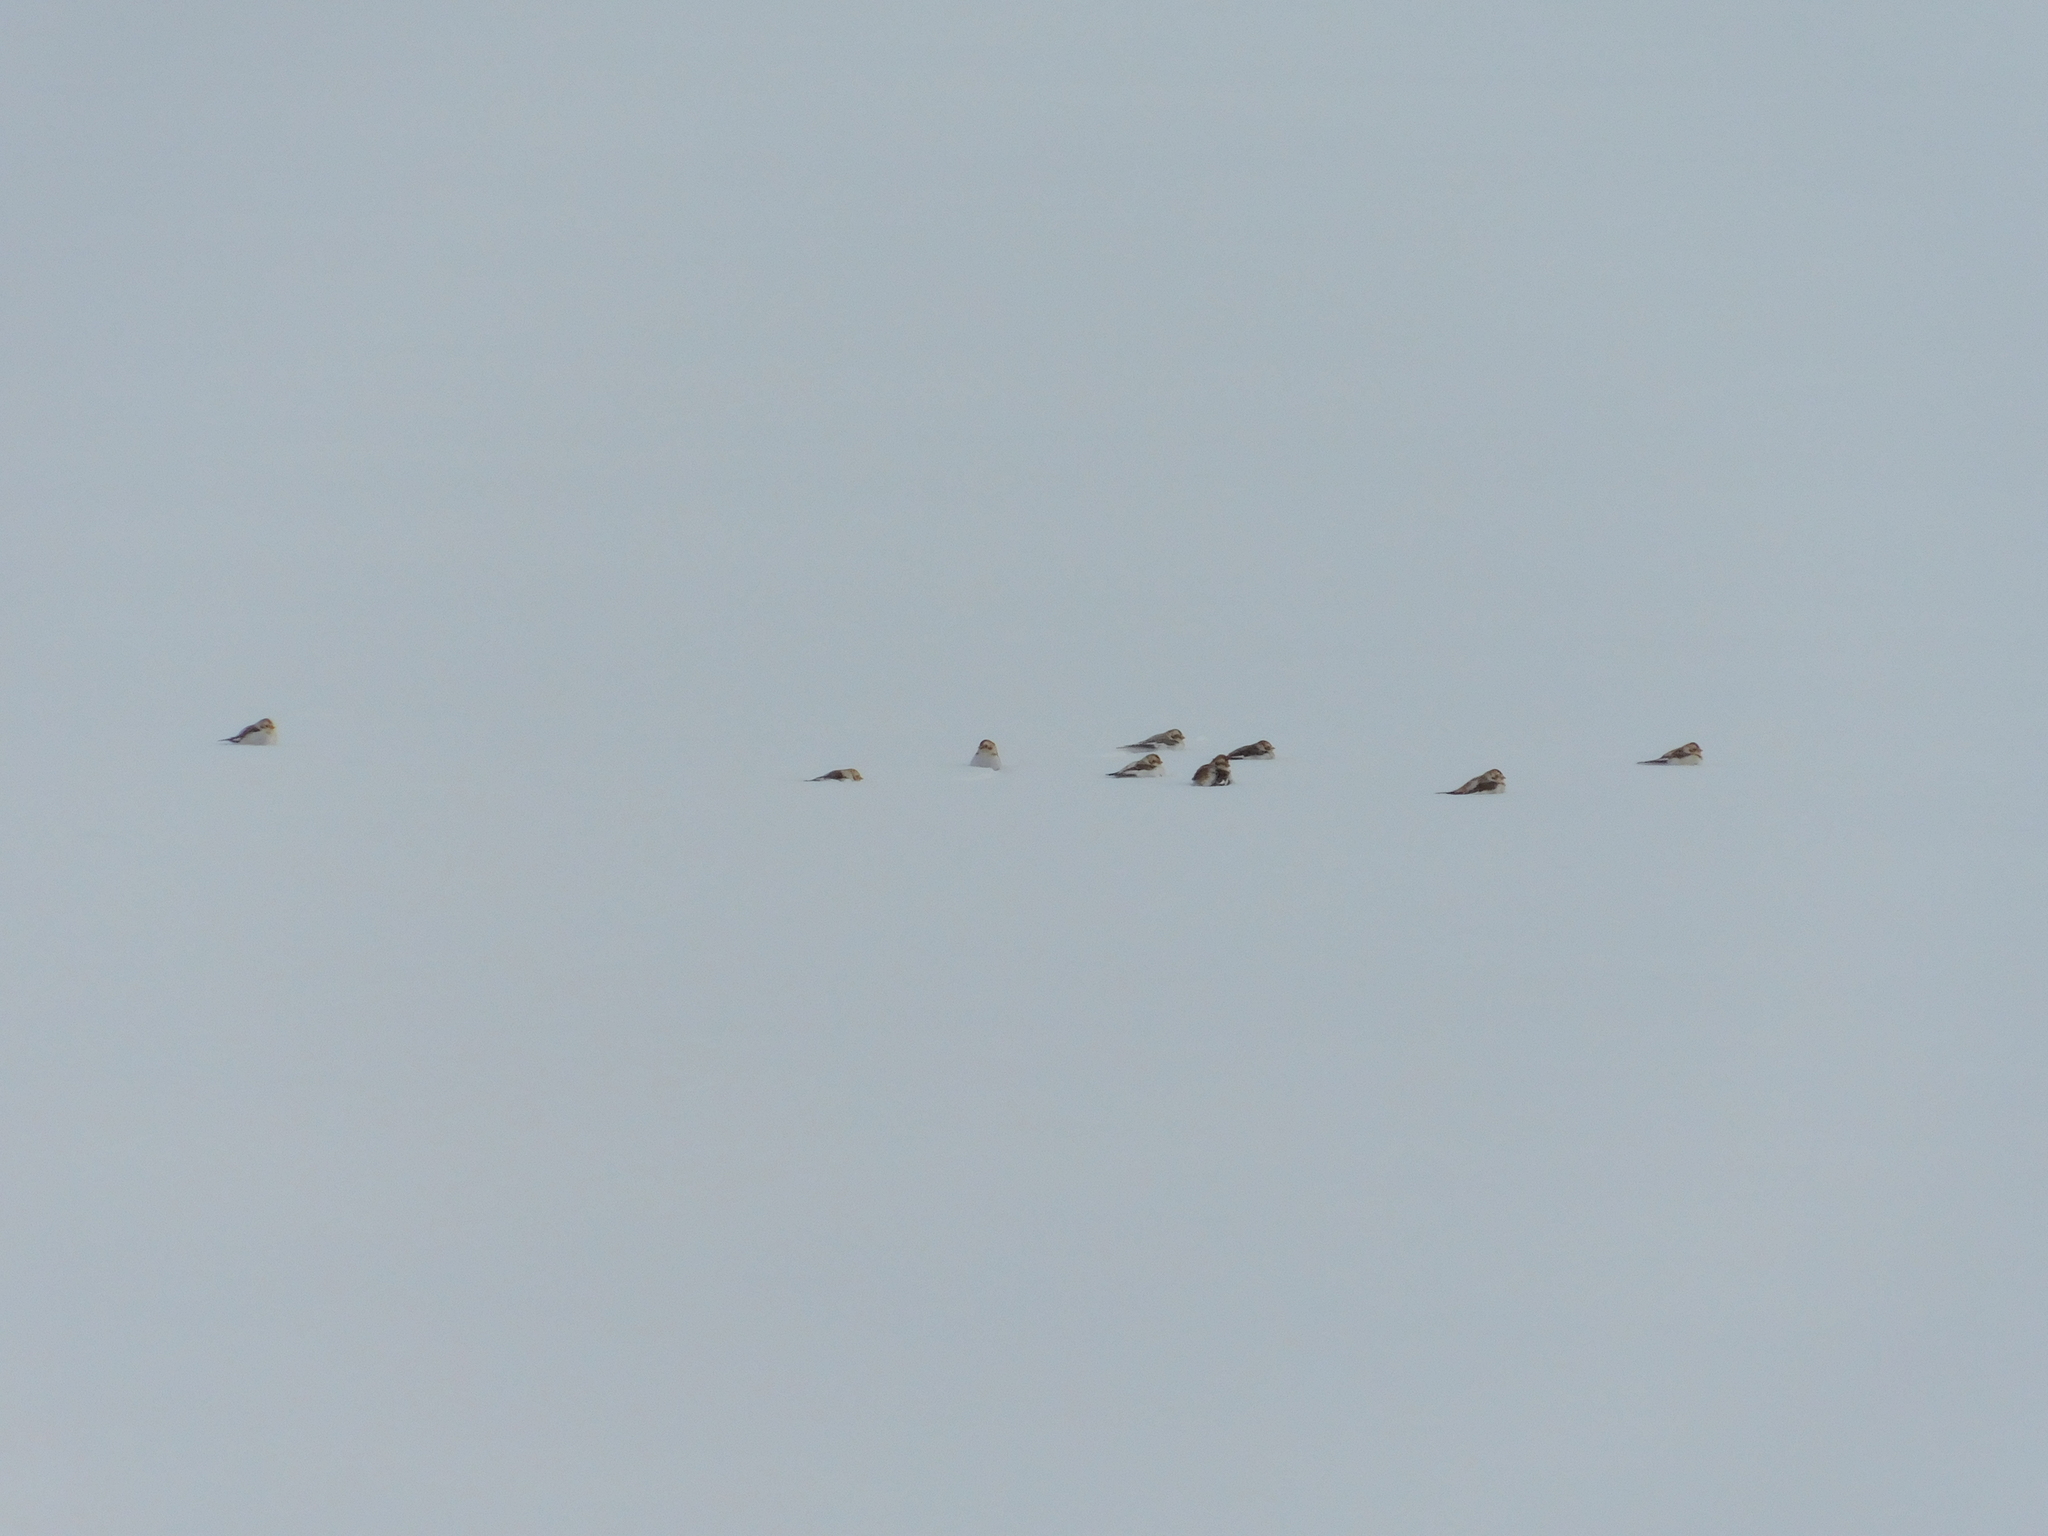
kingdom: Animalia
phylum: Chordata
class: Aves
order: Passeriformes
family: Calcariidae
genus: Plectrophenax
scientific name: Plectrophenax nivalis
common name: Snow bunting
